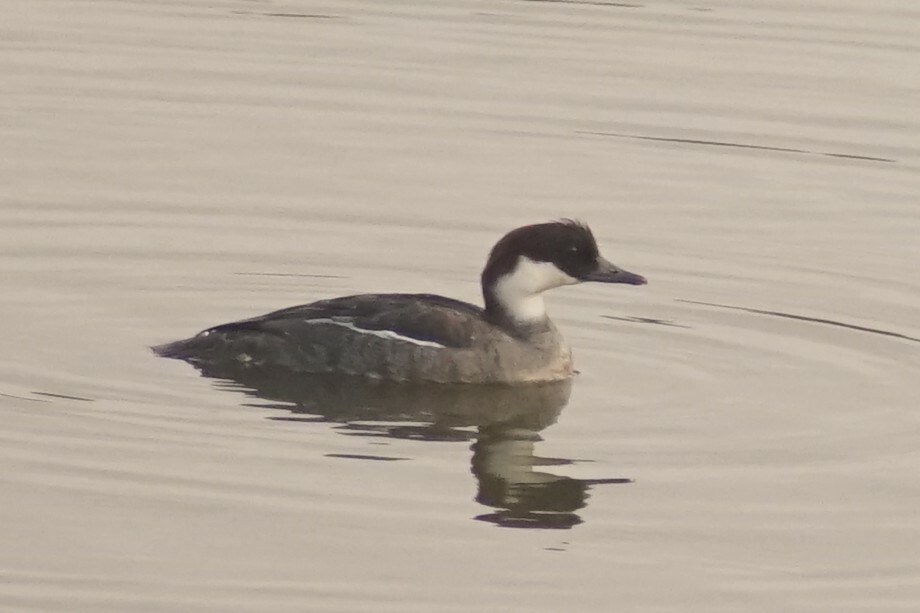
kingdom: Animalia
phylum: Chordata
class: Aves
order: Anseriformes
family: Anatidae
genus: Mergellus
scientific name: Mergellus albellus
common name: Smew
